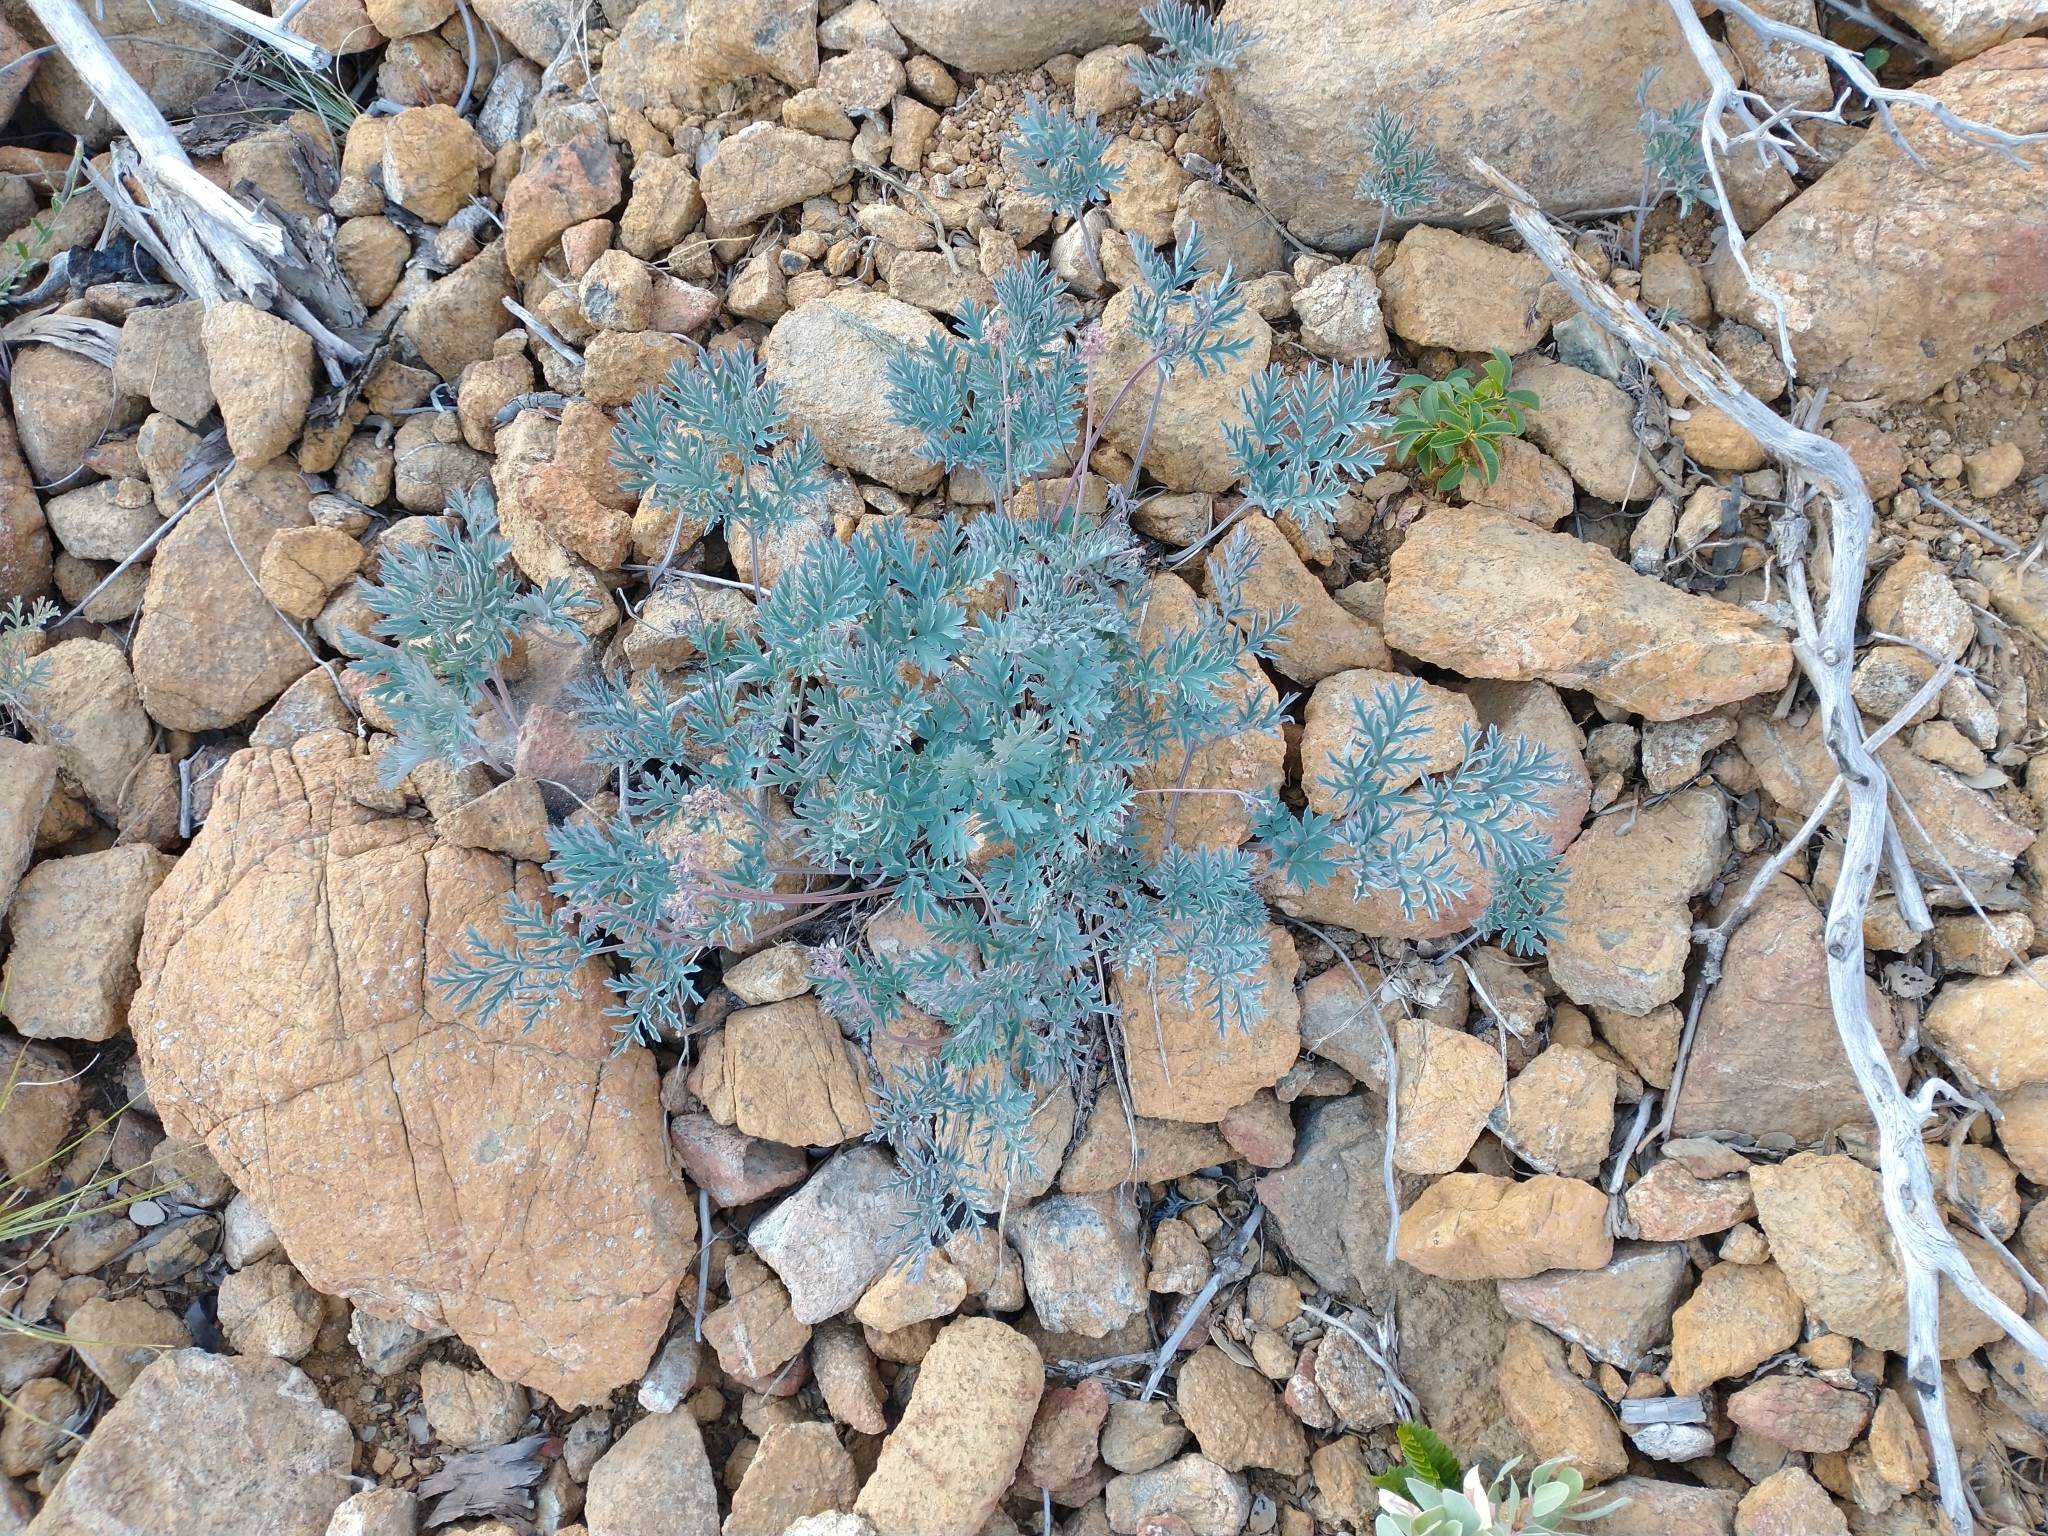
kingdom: Plantae
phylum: Tracheophyta
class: Magnoliopsida
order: Ranunculales
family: Papaveraceae
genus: Dicentra
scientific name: Dicentra formosa
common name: Bleeding-heart
